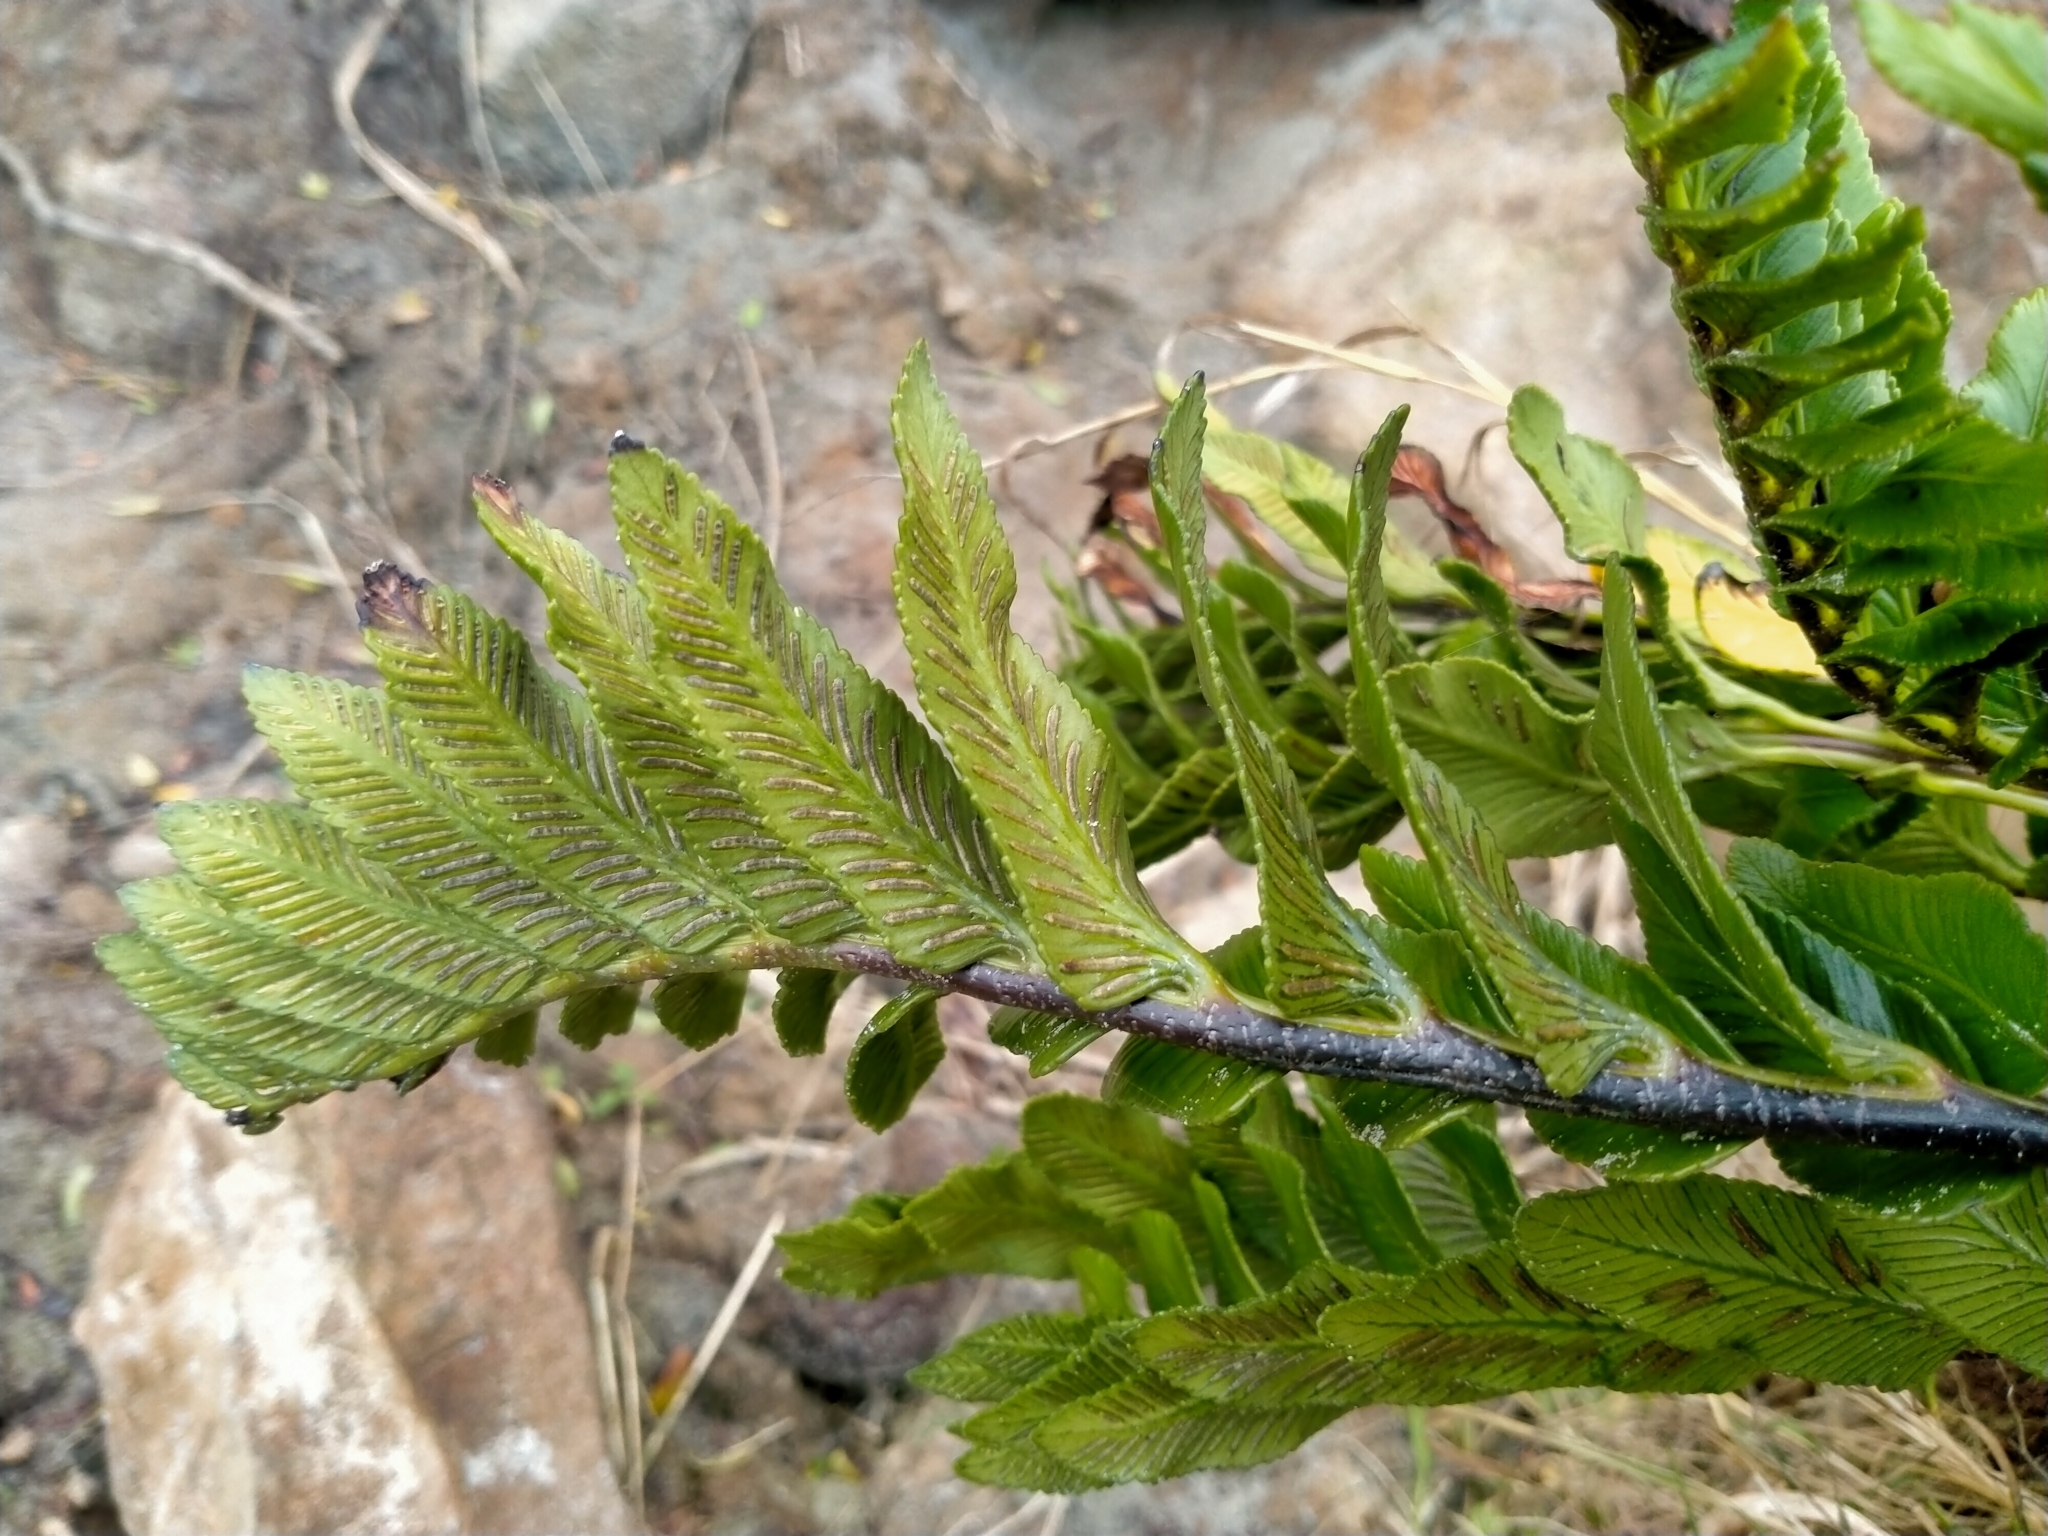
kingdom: Plantae
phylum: Tracheophyta
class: Polypodiopsida
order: Polypodiales
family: Aspleniaceae
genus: Asplenium
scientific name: Asplenium obtusatum
